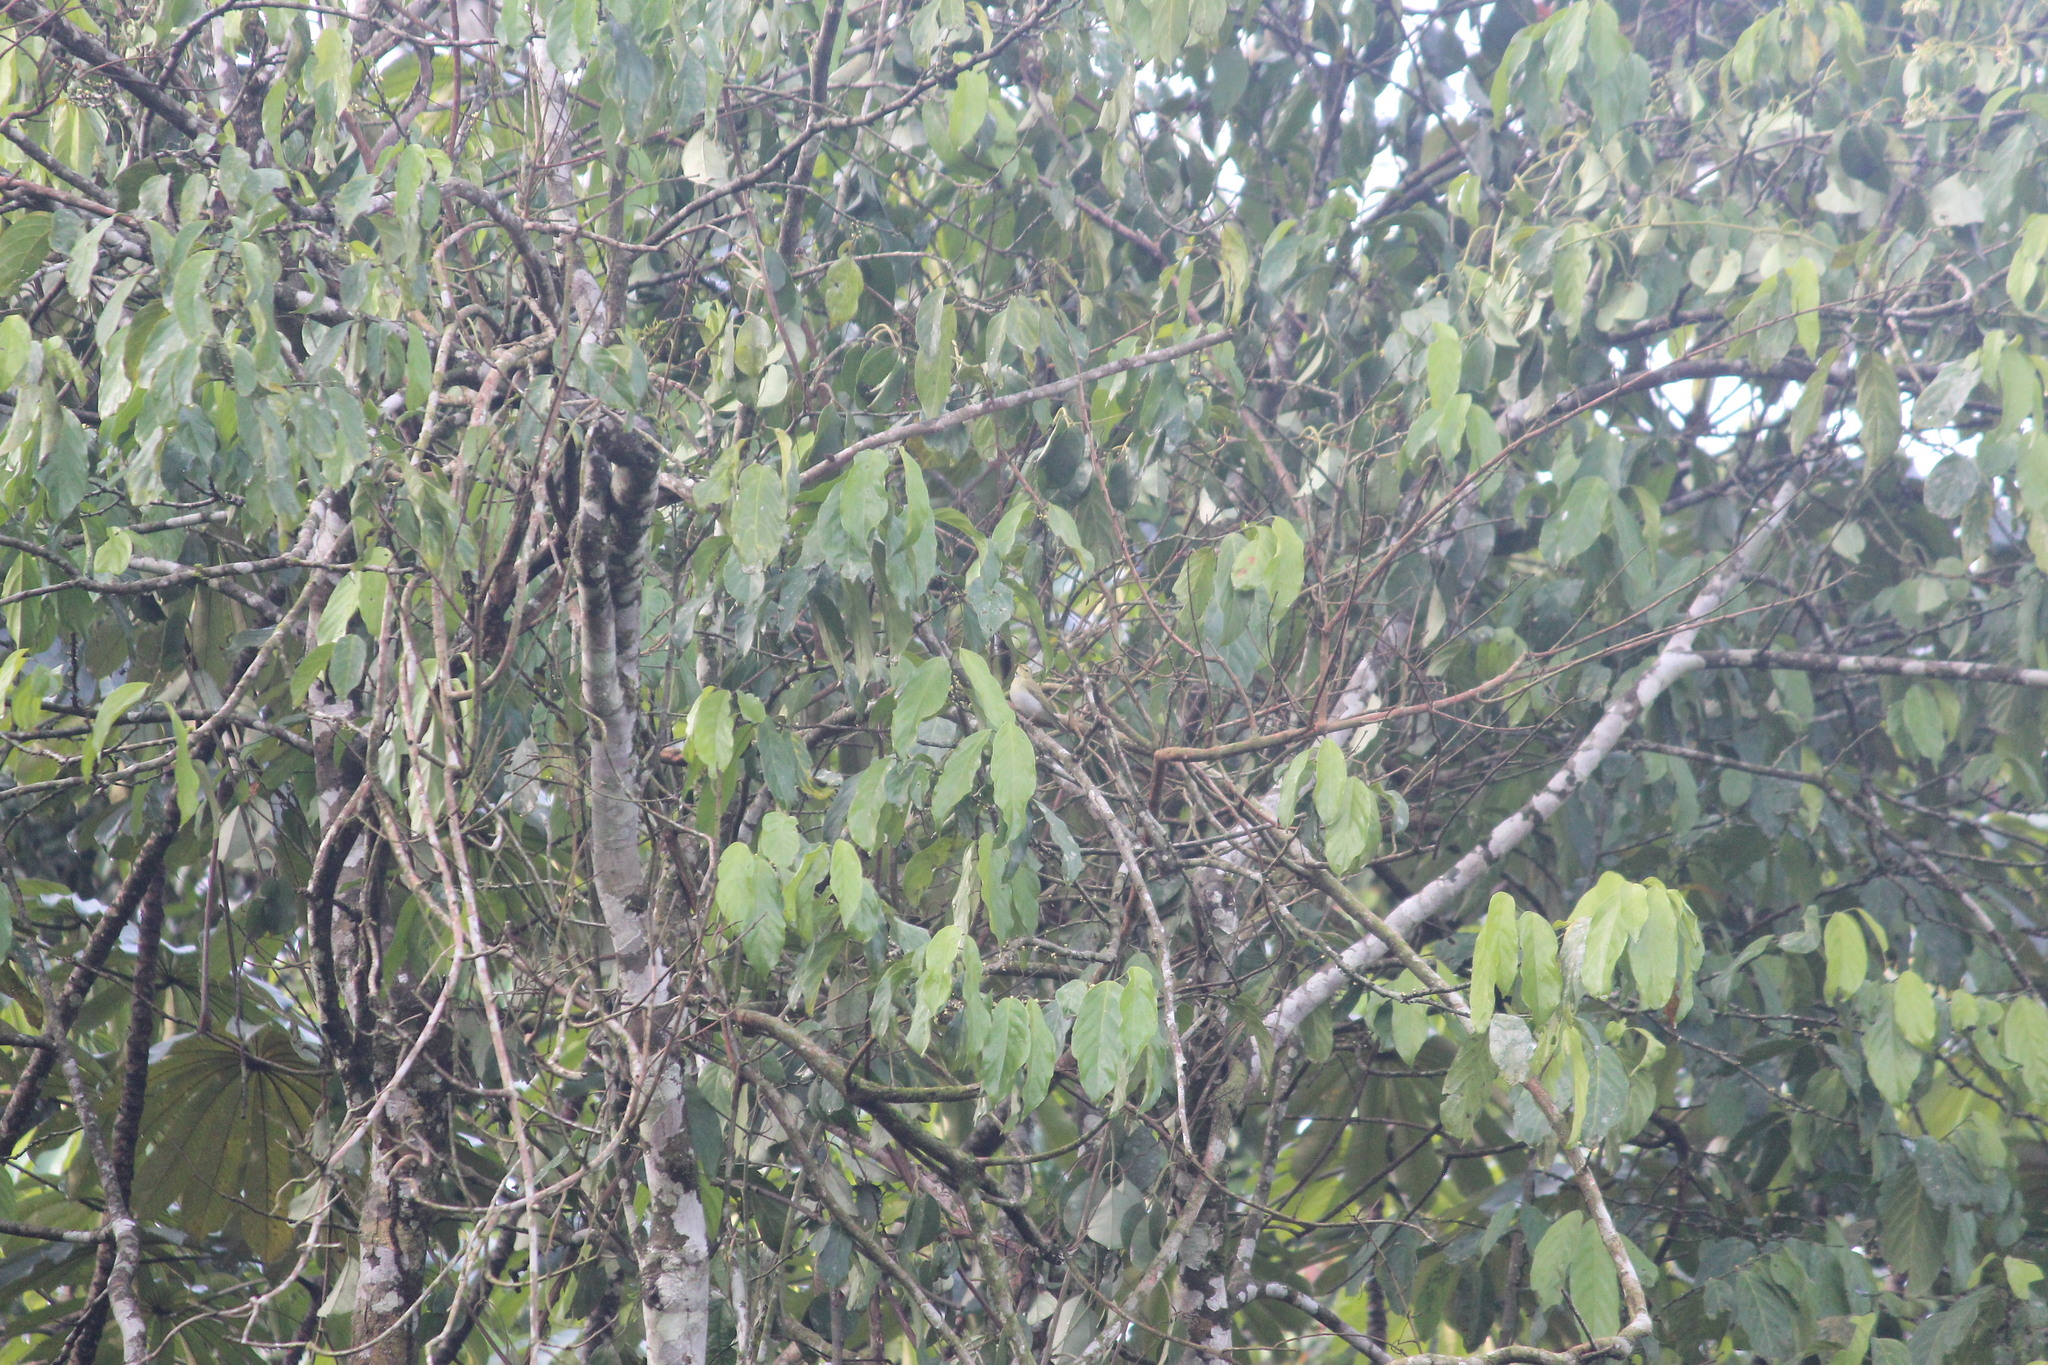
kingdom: Animalia
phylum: Chordata
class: Aves
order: Passeriformes
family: Phylloscopidae
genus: Phylloscopus
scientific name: Phylloscopus trochilus
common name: Willow warbler
